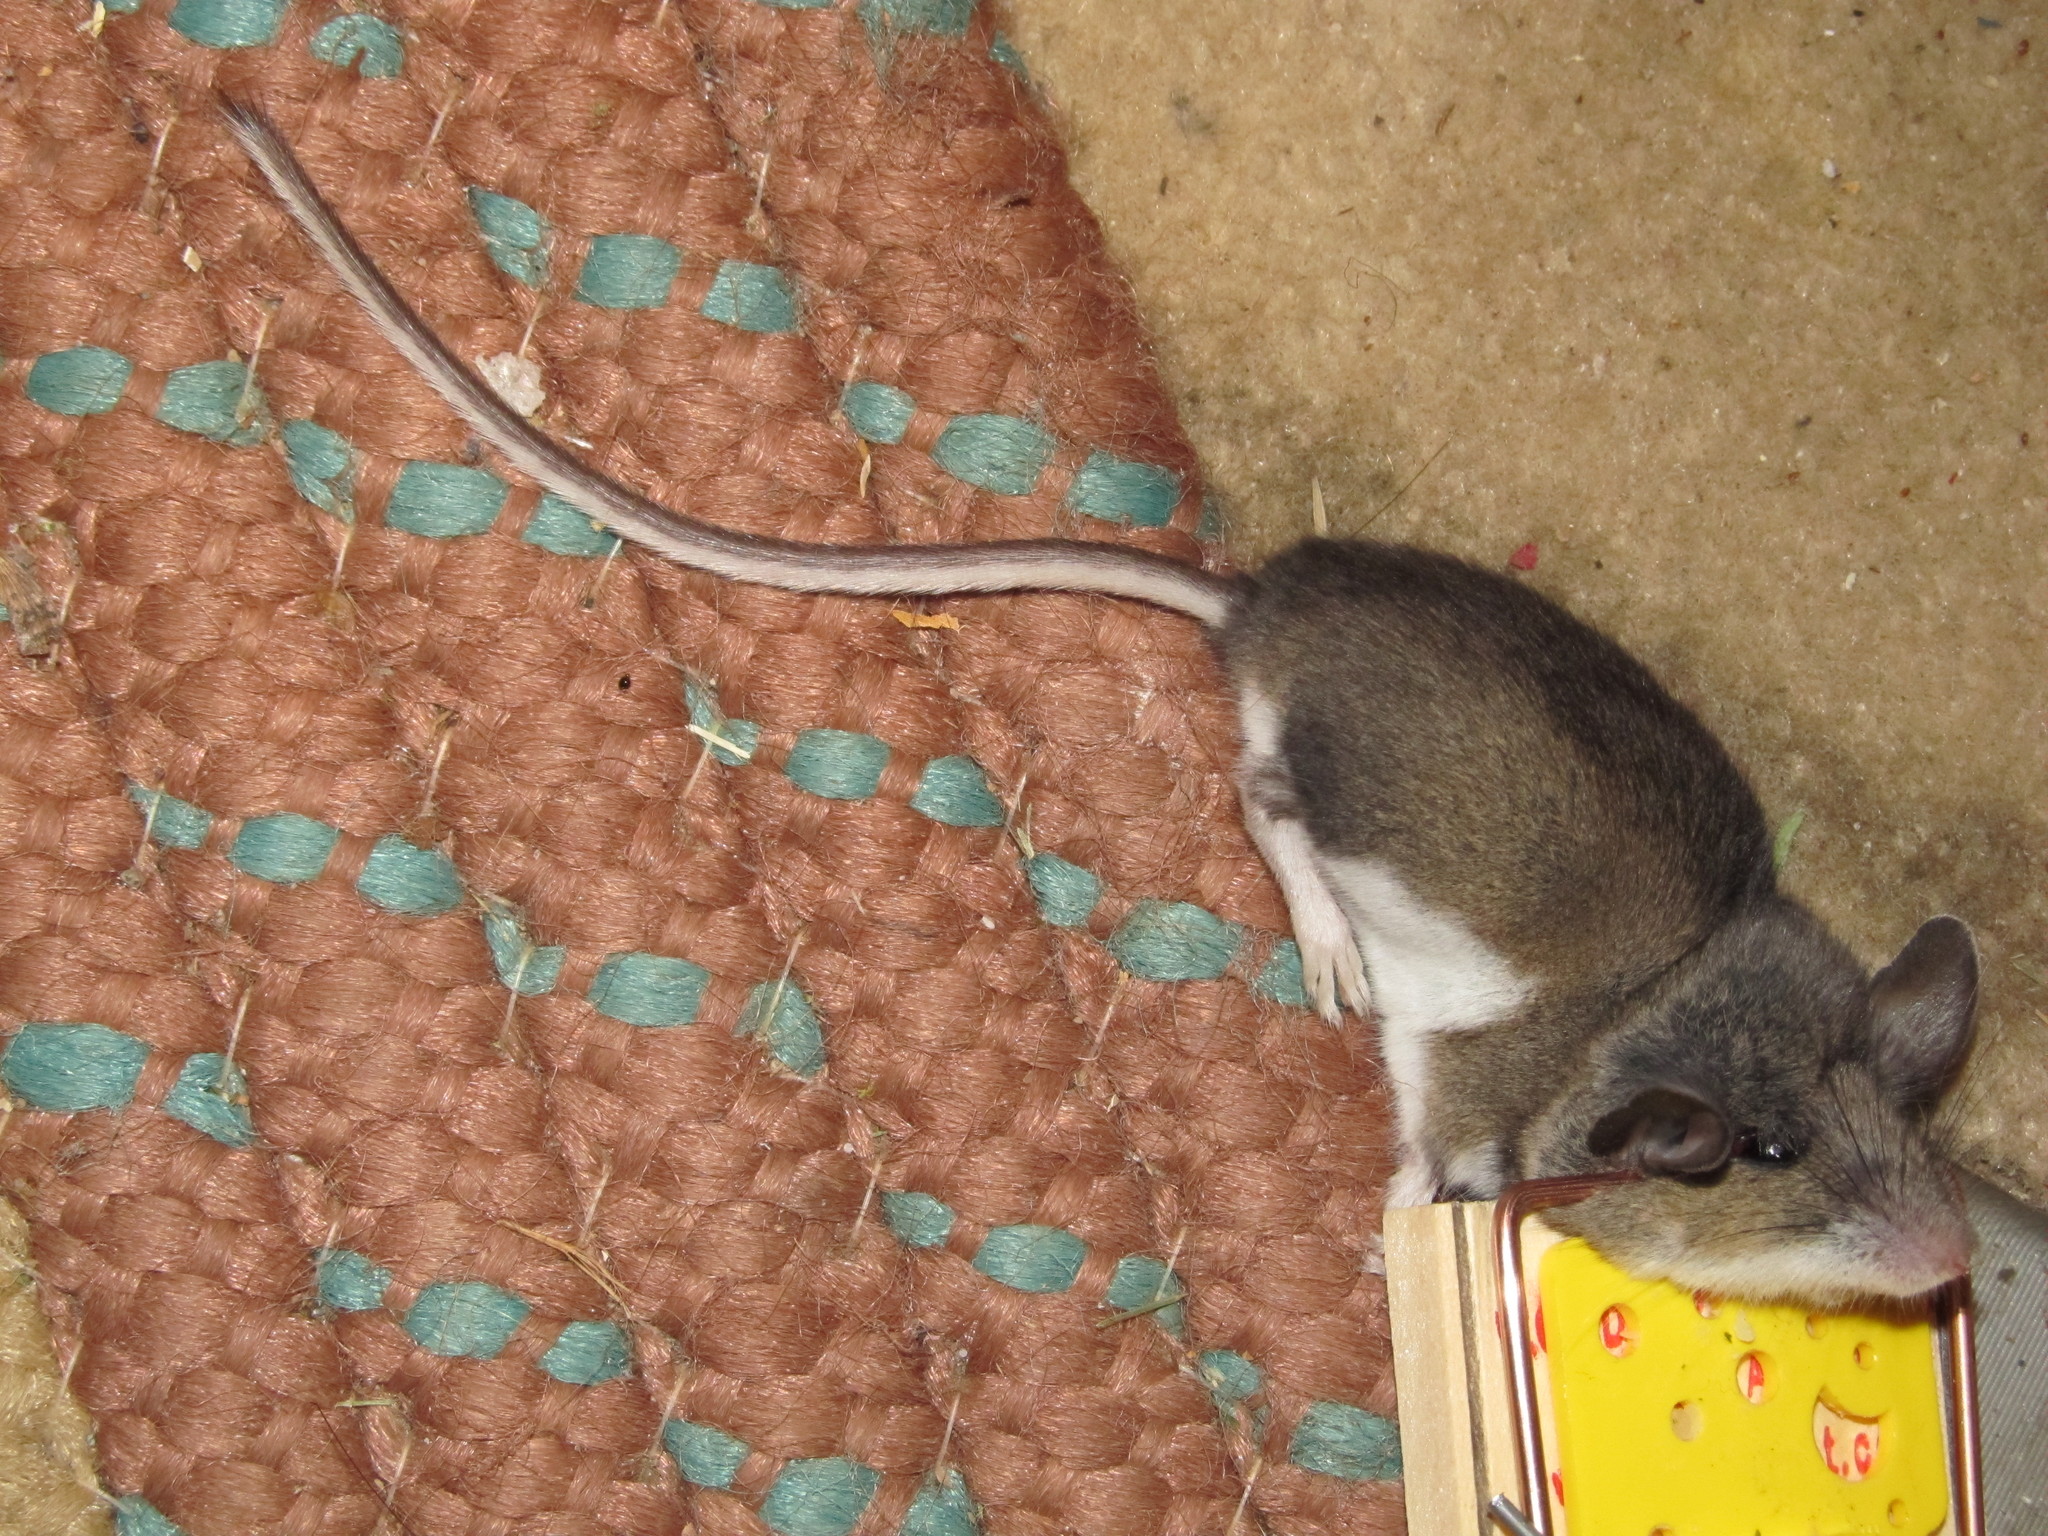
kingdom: Animalia
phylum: Chordata
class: Mammalia
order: Rodentia
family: Cricetidae
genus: Peromyscus
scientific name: Peromyscus maniculatus
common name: Deer mouse
